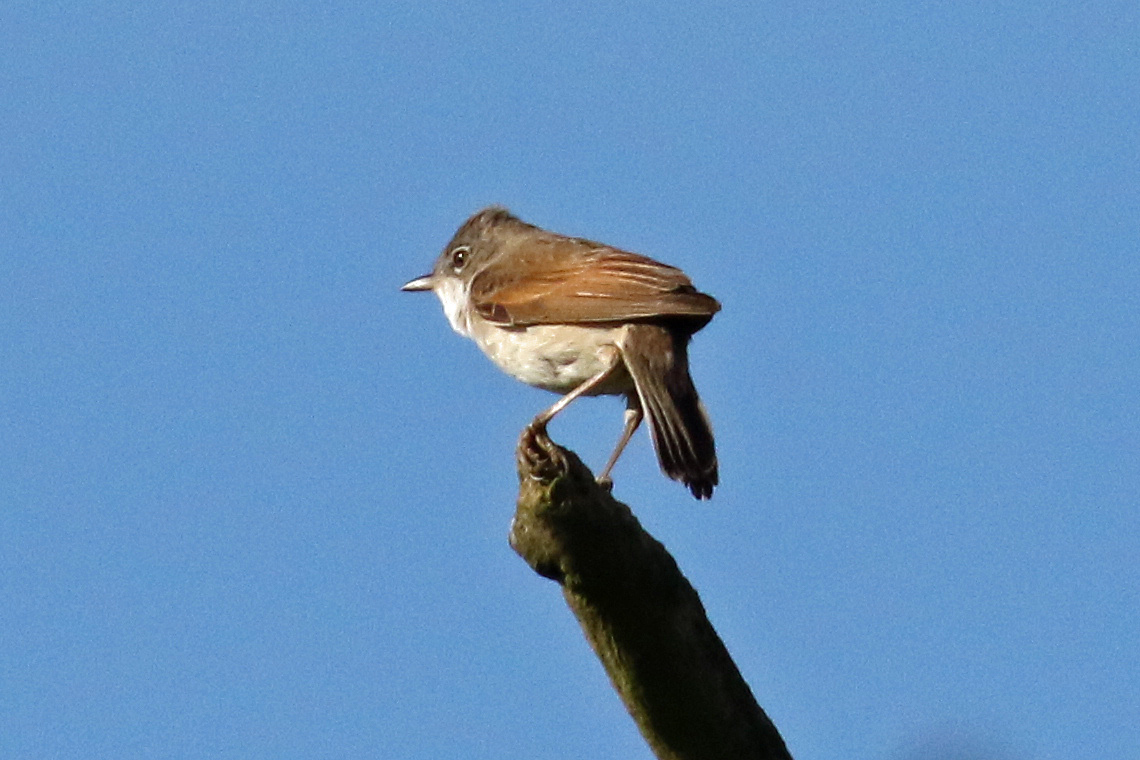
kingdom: Animalia
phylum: Chordata
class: Aves
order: Passeriformes
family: Sylviidae
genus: Sylvia
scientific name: Sylvia communis
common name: Common whitethroat
